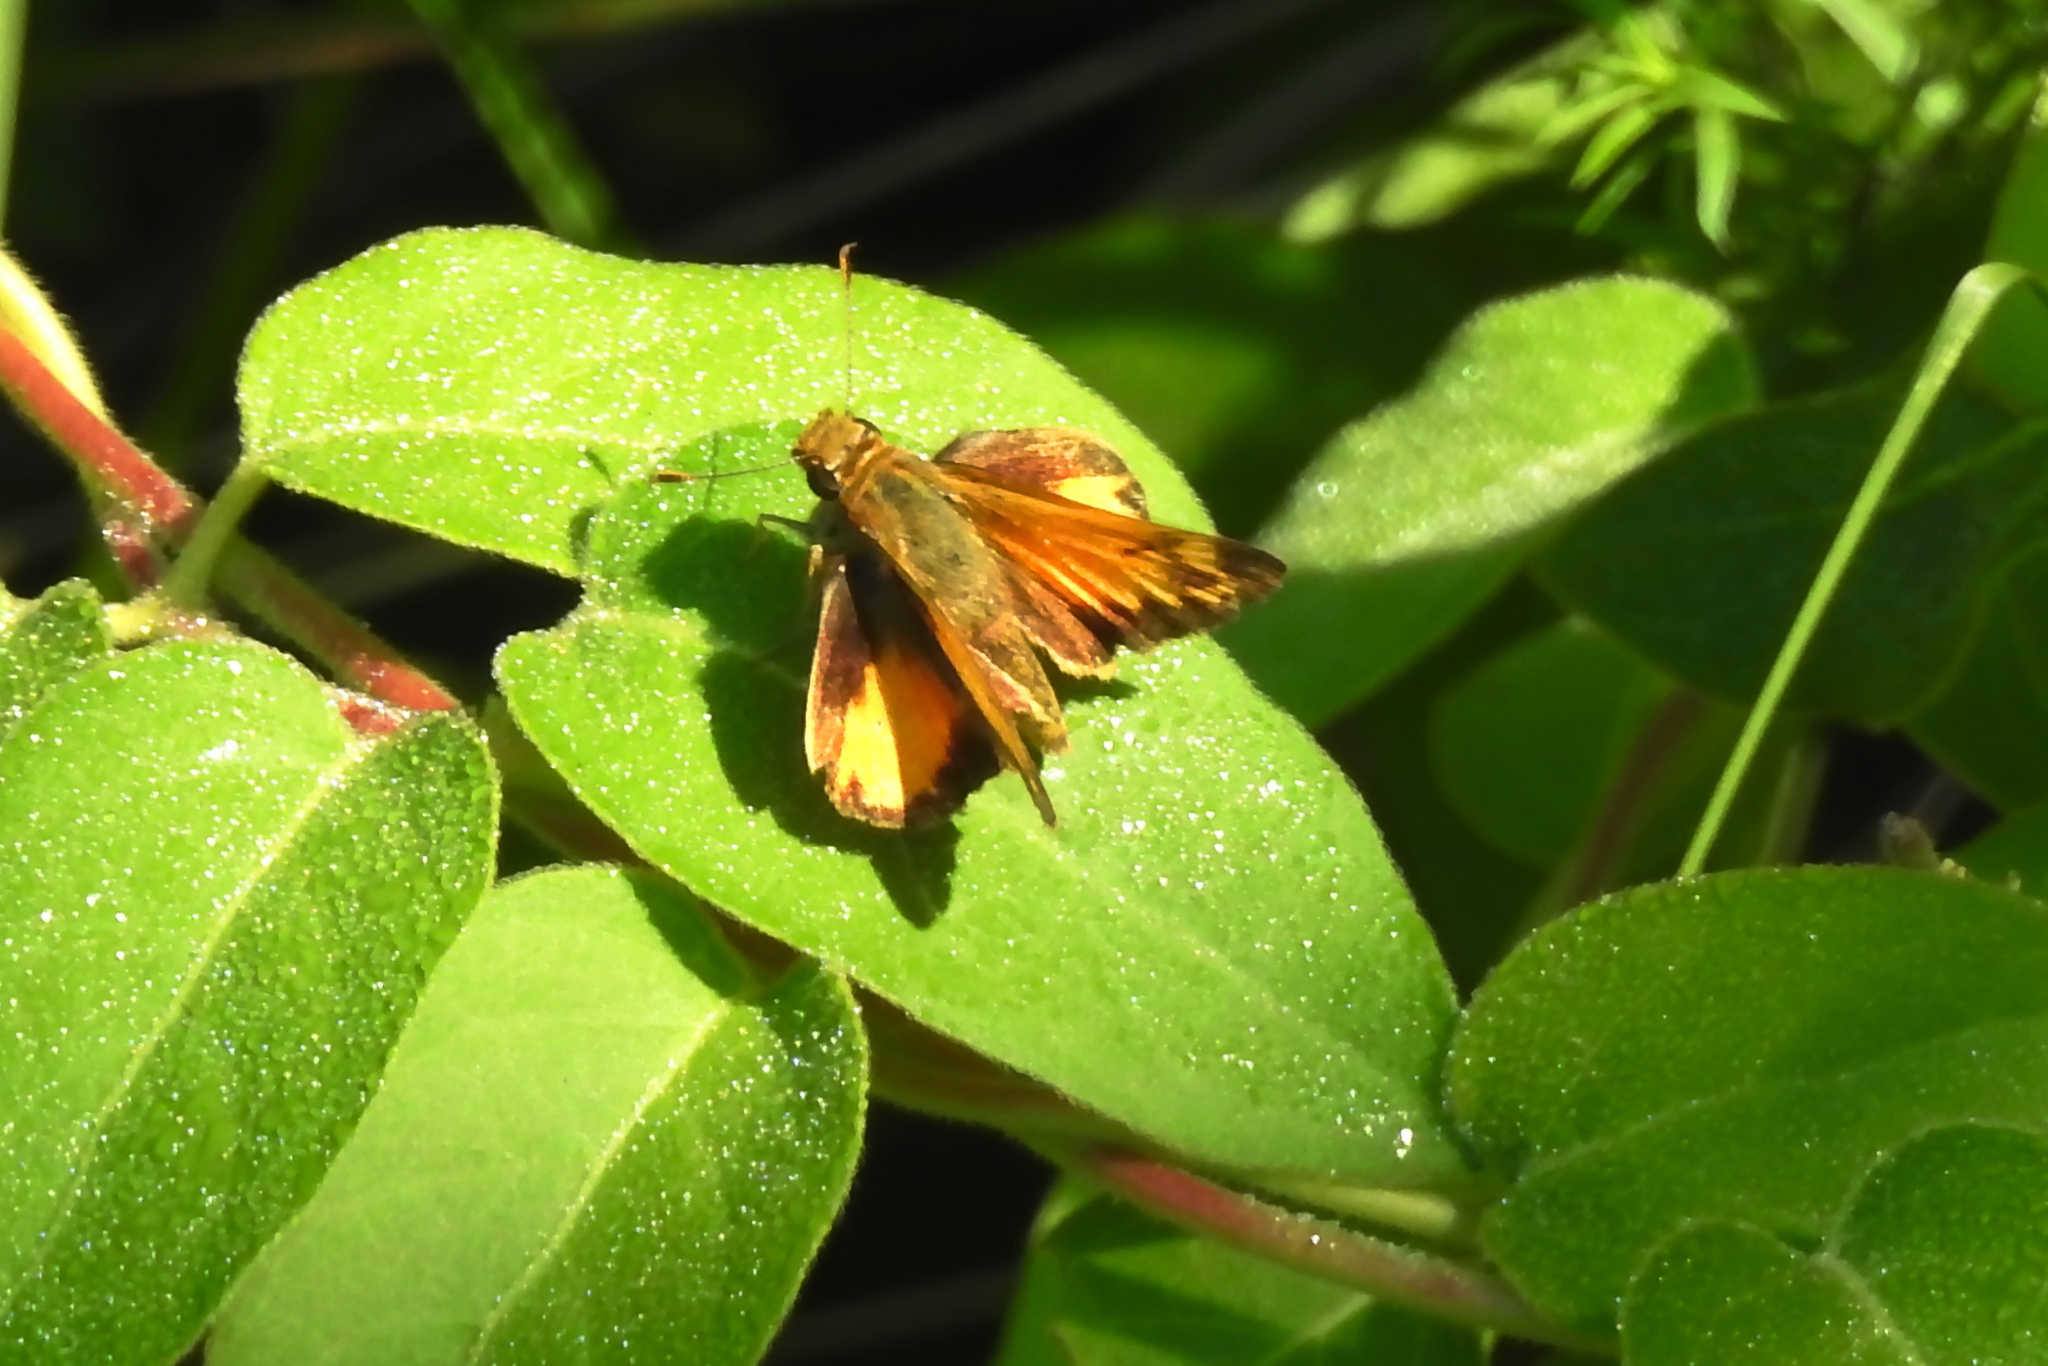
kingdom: Animalia
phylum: Arthropoda
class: Insecta
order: Lepidoptera
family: Hesperiidae
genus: Lon
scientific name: Lon zabulon
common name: Zabulon skipper
